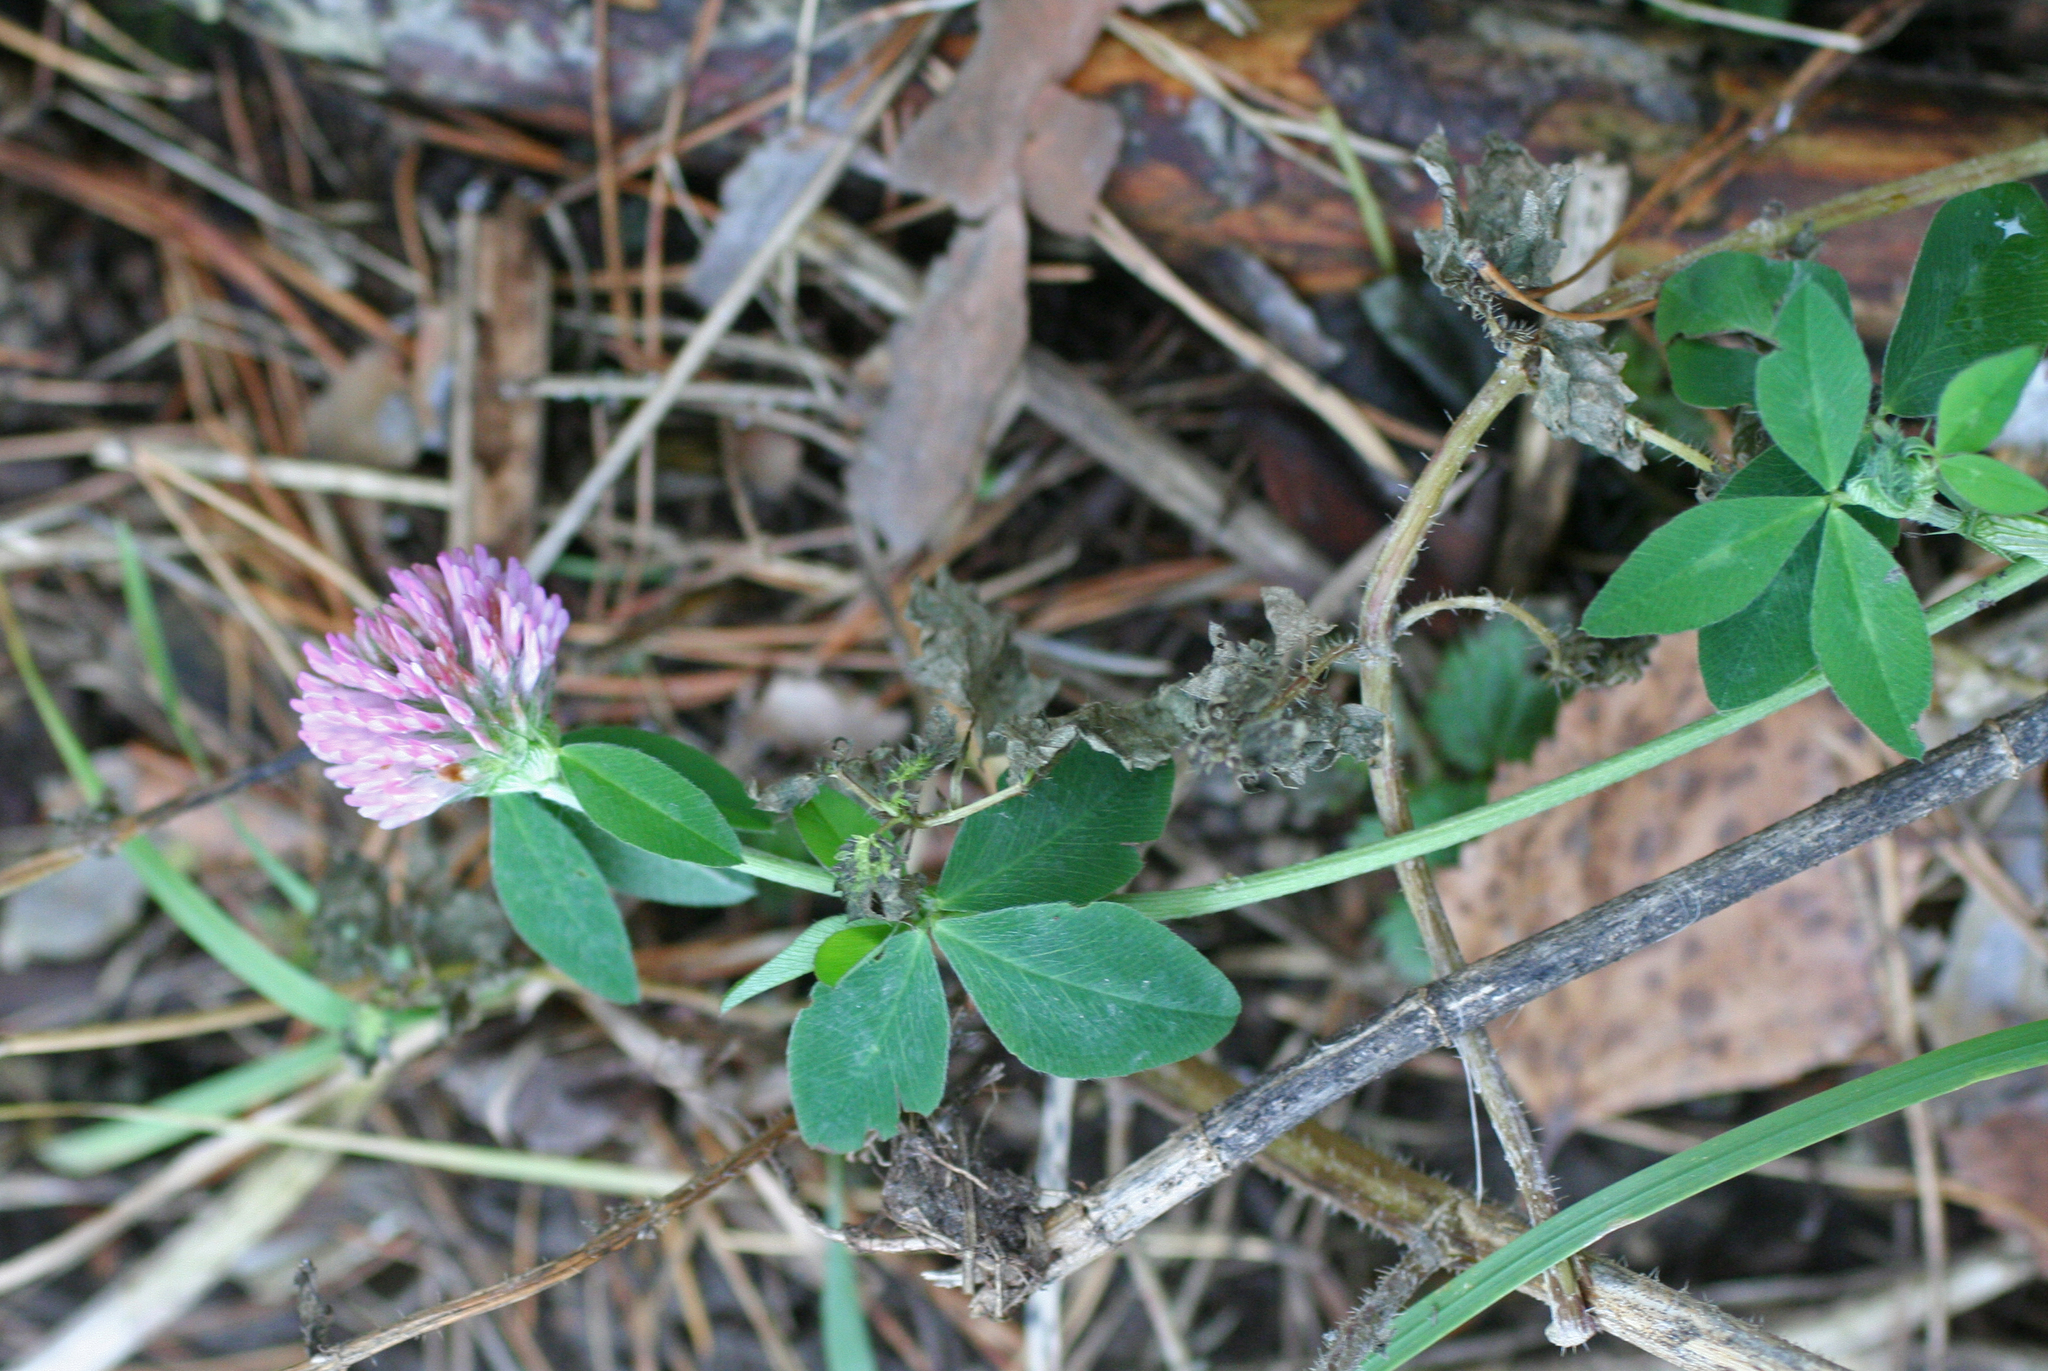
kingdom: Plantae
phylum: Tracheophyta
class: Magnoliopsida
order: Fabales
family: Fabaceae
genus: Trifolium
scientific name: Trifolium pratense
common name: Red clover
